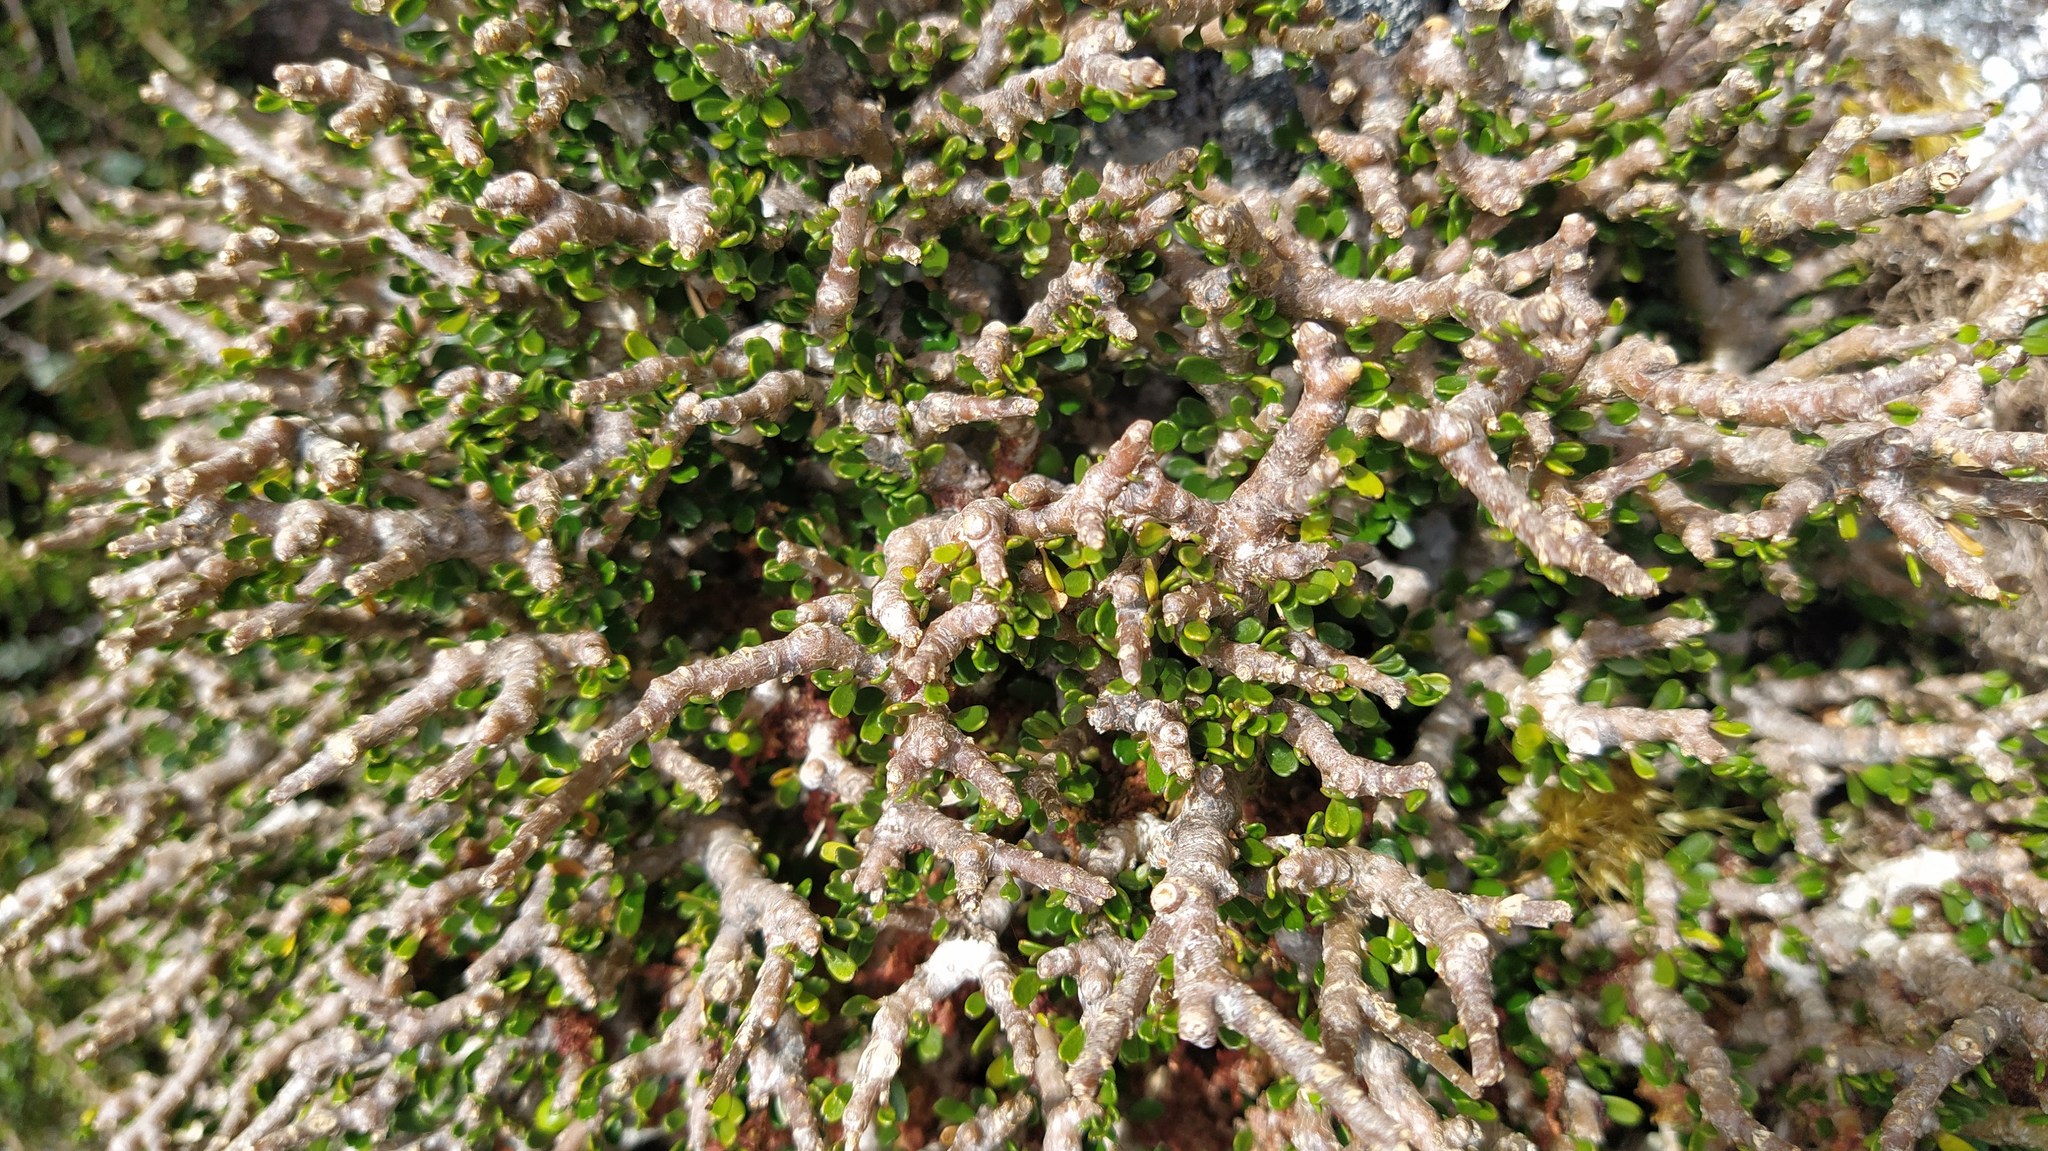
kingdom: Plantae
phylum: Tracheophyta
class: Magnoliopsida
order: Malpighiales
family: Violaceae
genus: Melicytus
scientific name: Melicytus alpinus
